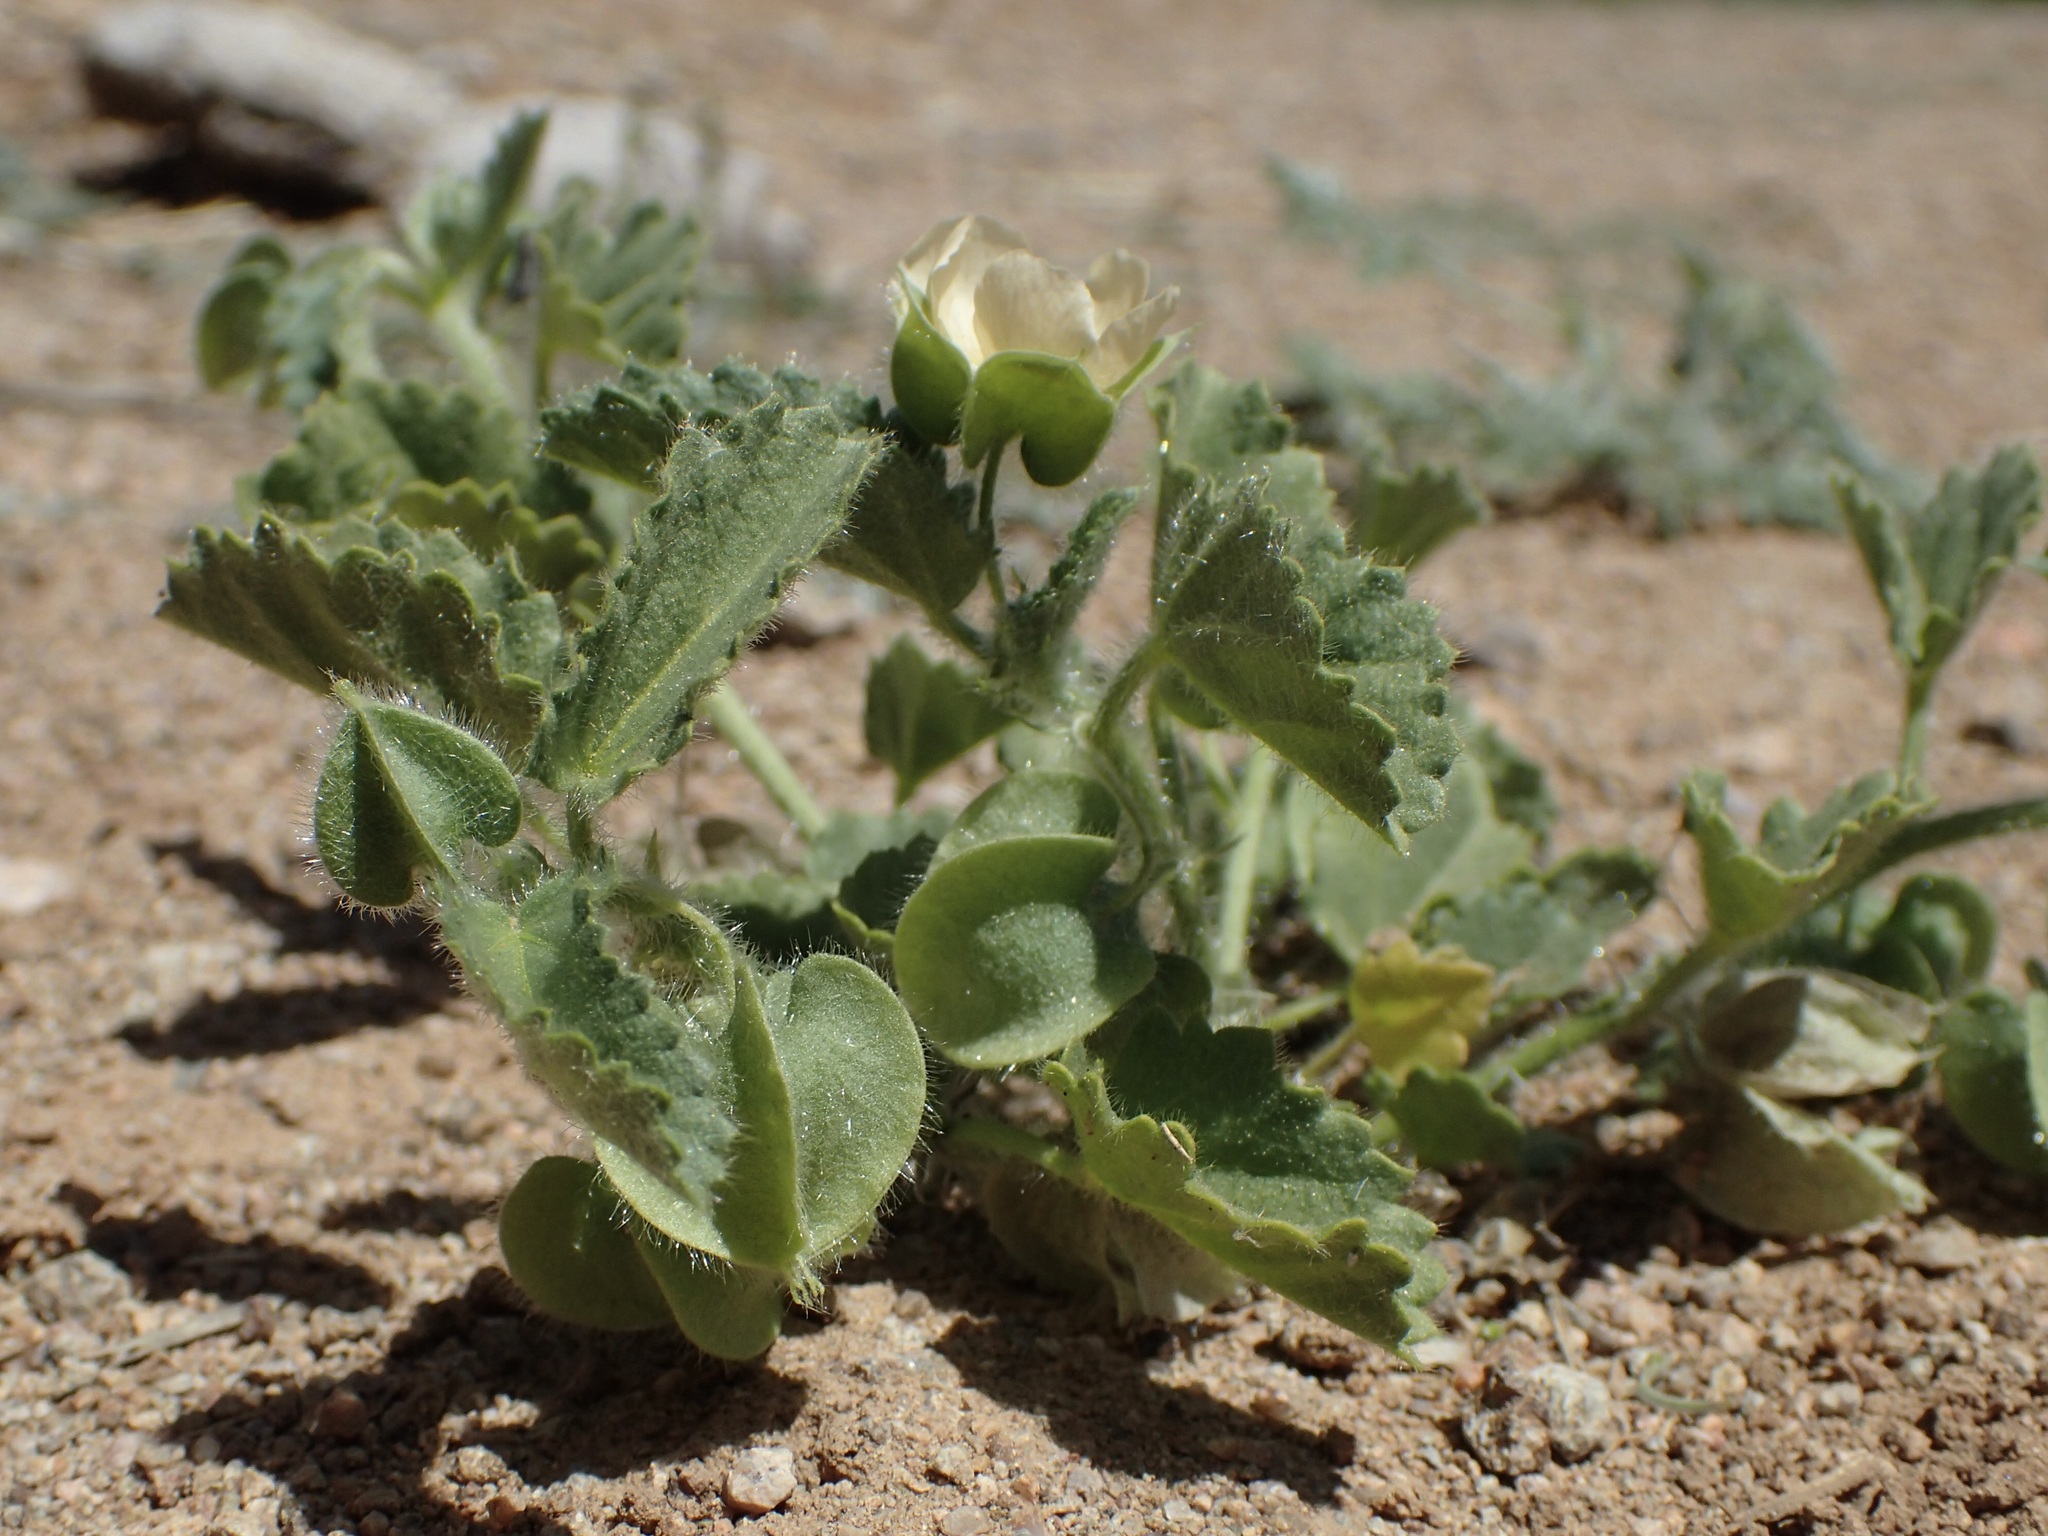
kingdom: Plantae
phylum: Tracheophyta
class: Magnoliopsida
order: Malvales
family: Malvaceae
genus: Rhynchosida
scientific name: Rhynchosida physocalyx
